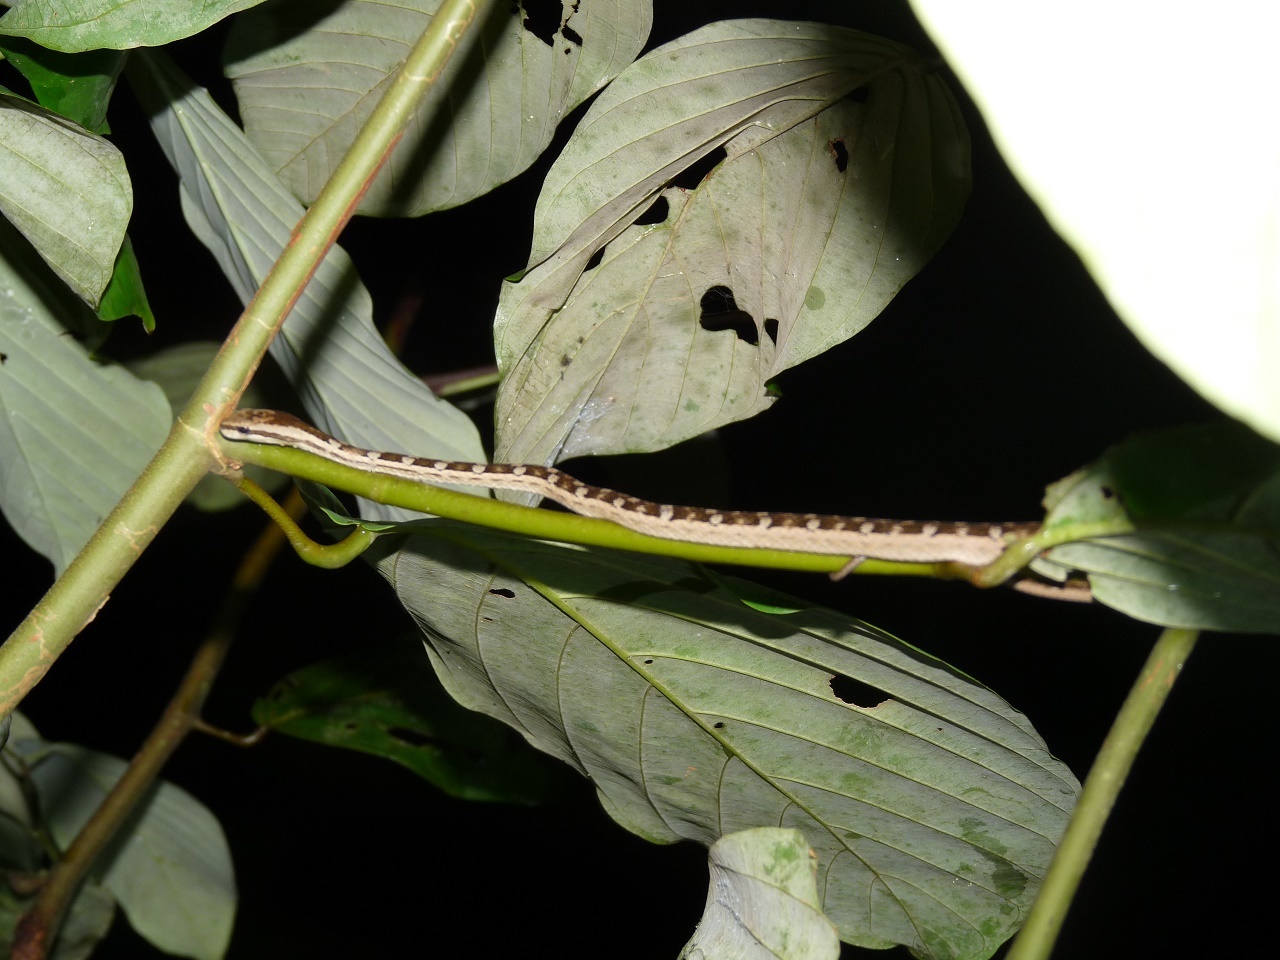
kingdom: Animalia
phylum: Chordata
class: Squamata
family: Pseudaspididae
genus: Psammodynastes
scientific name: Psammodynastes pictus
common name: Painted mock viper
